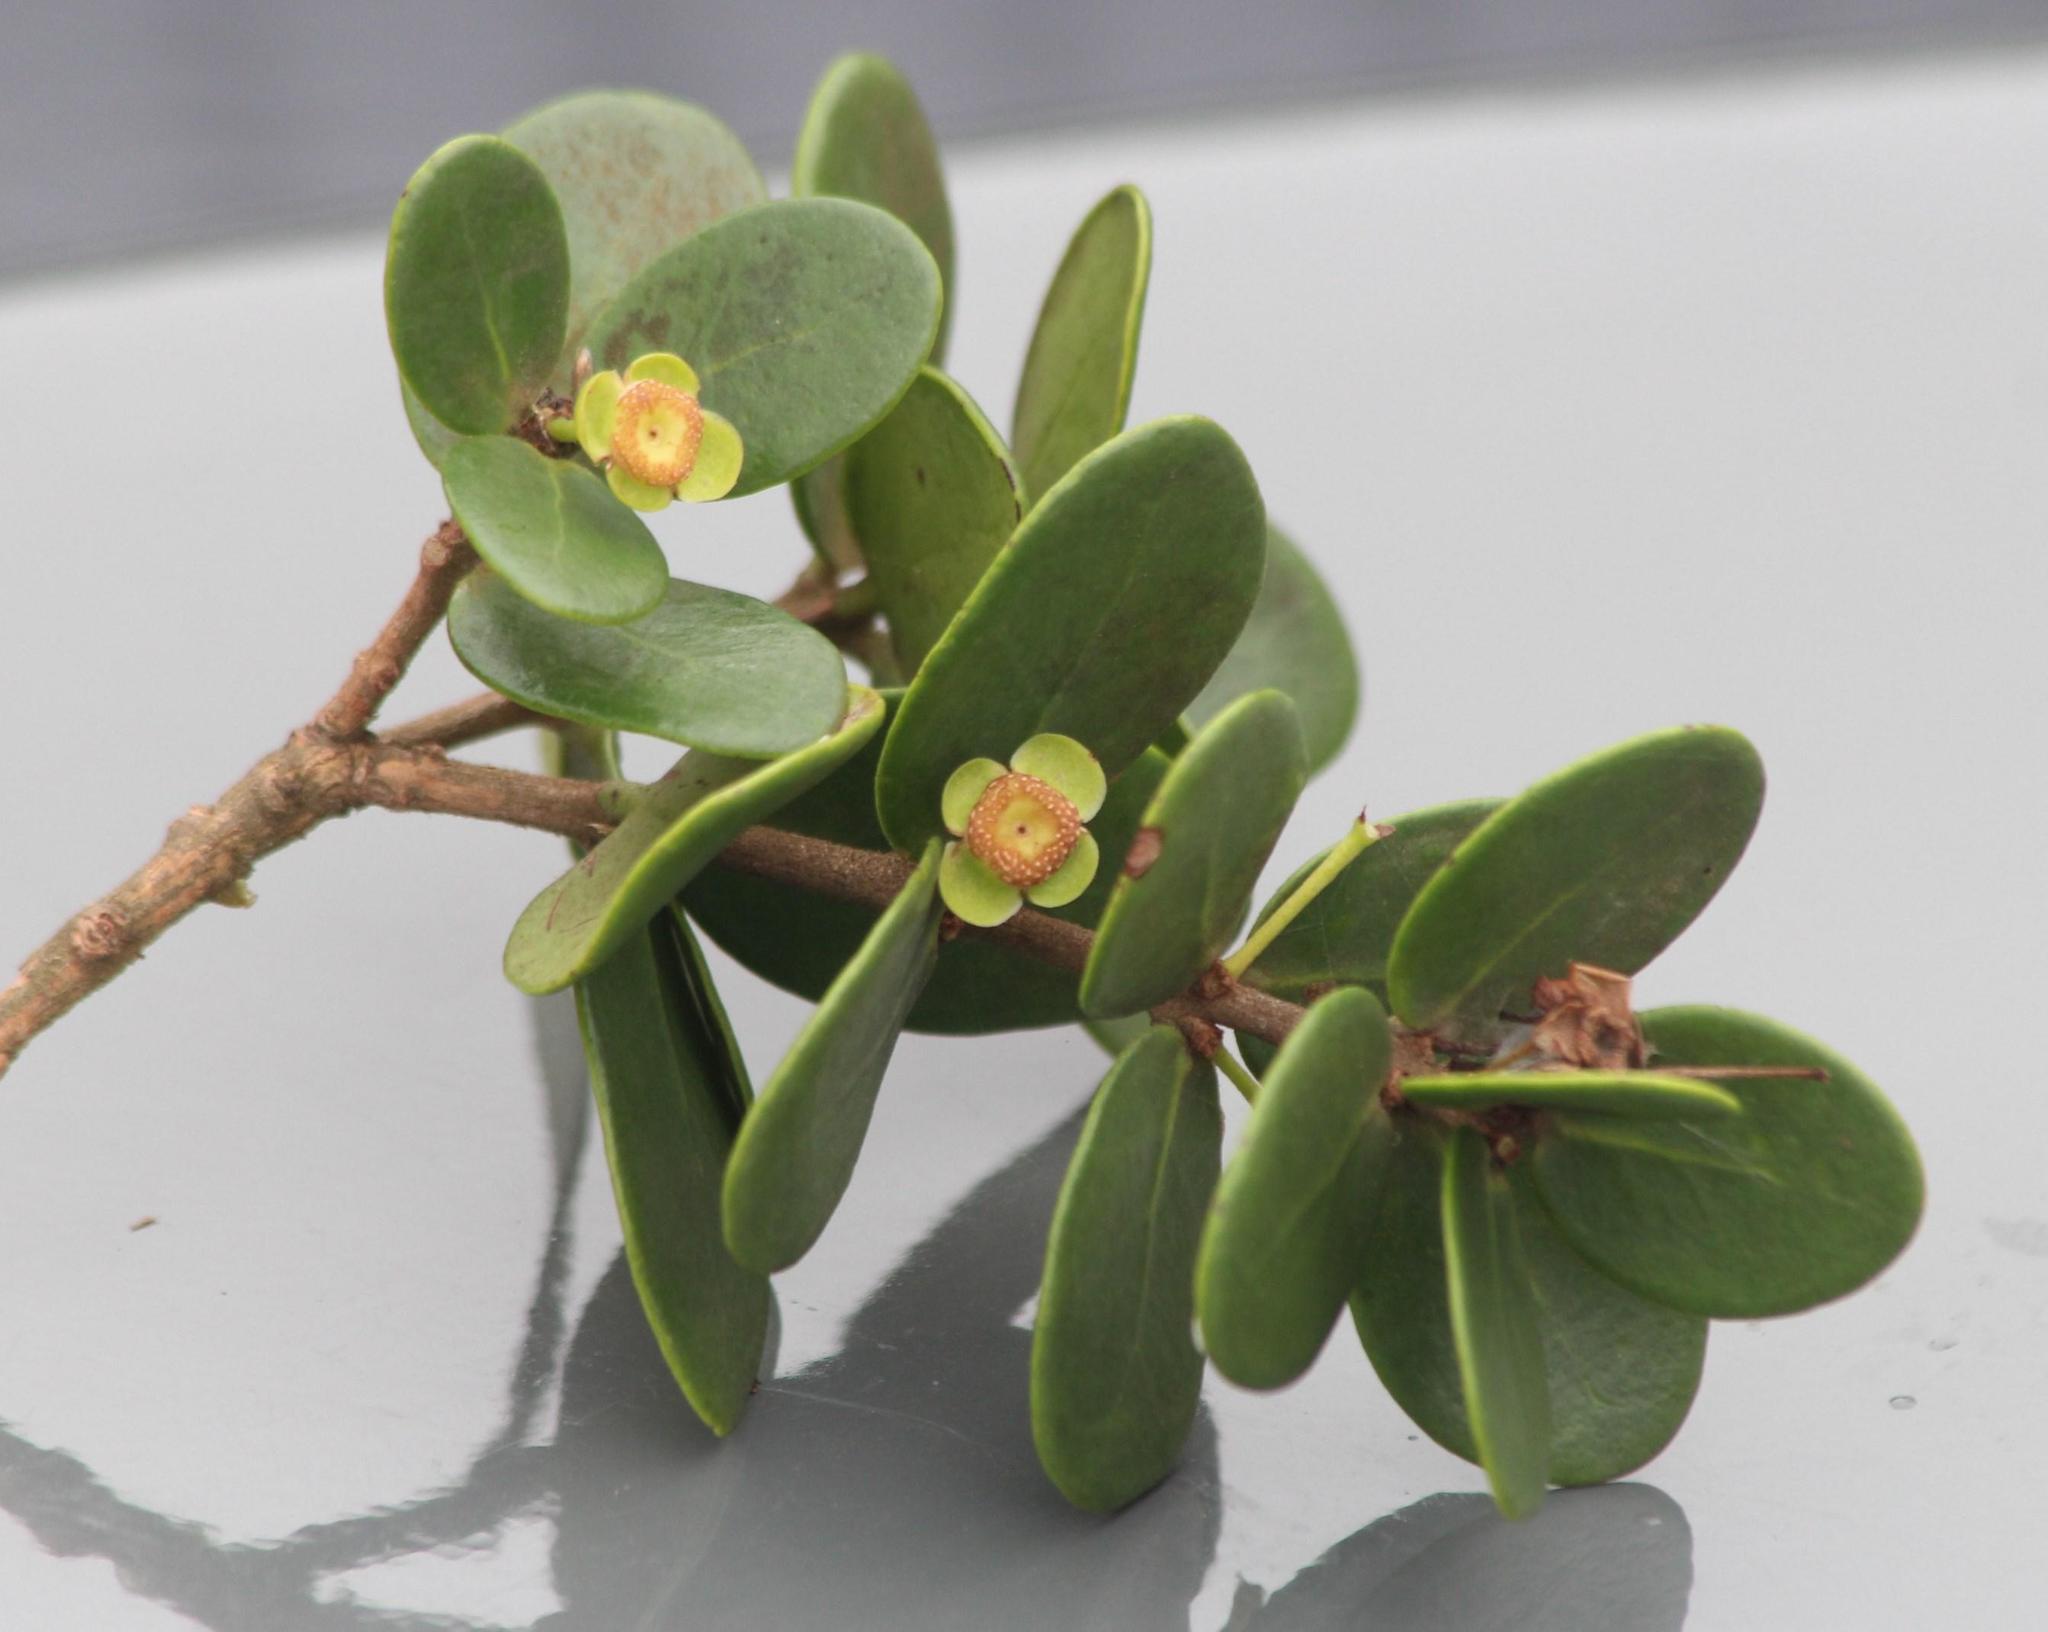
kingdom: Plantae
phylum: Tracheophyta
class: Magnoliopsida
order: Myrtales
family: Myrtaceae
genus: Eugenia
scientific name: Eugenia capensis
